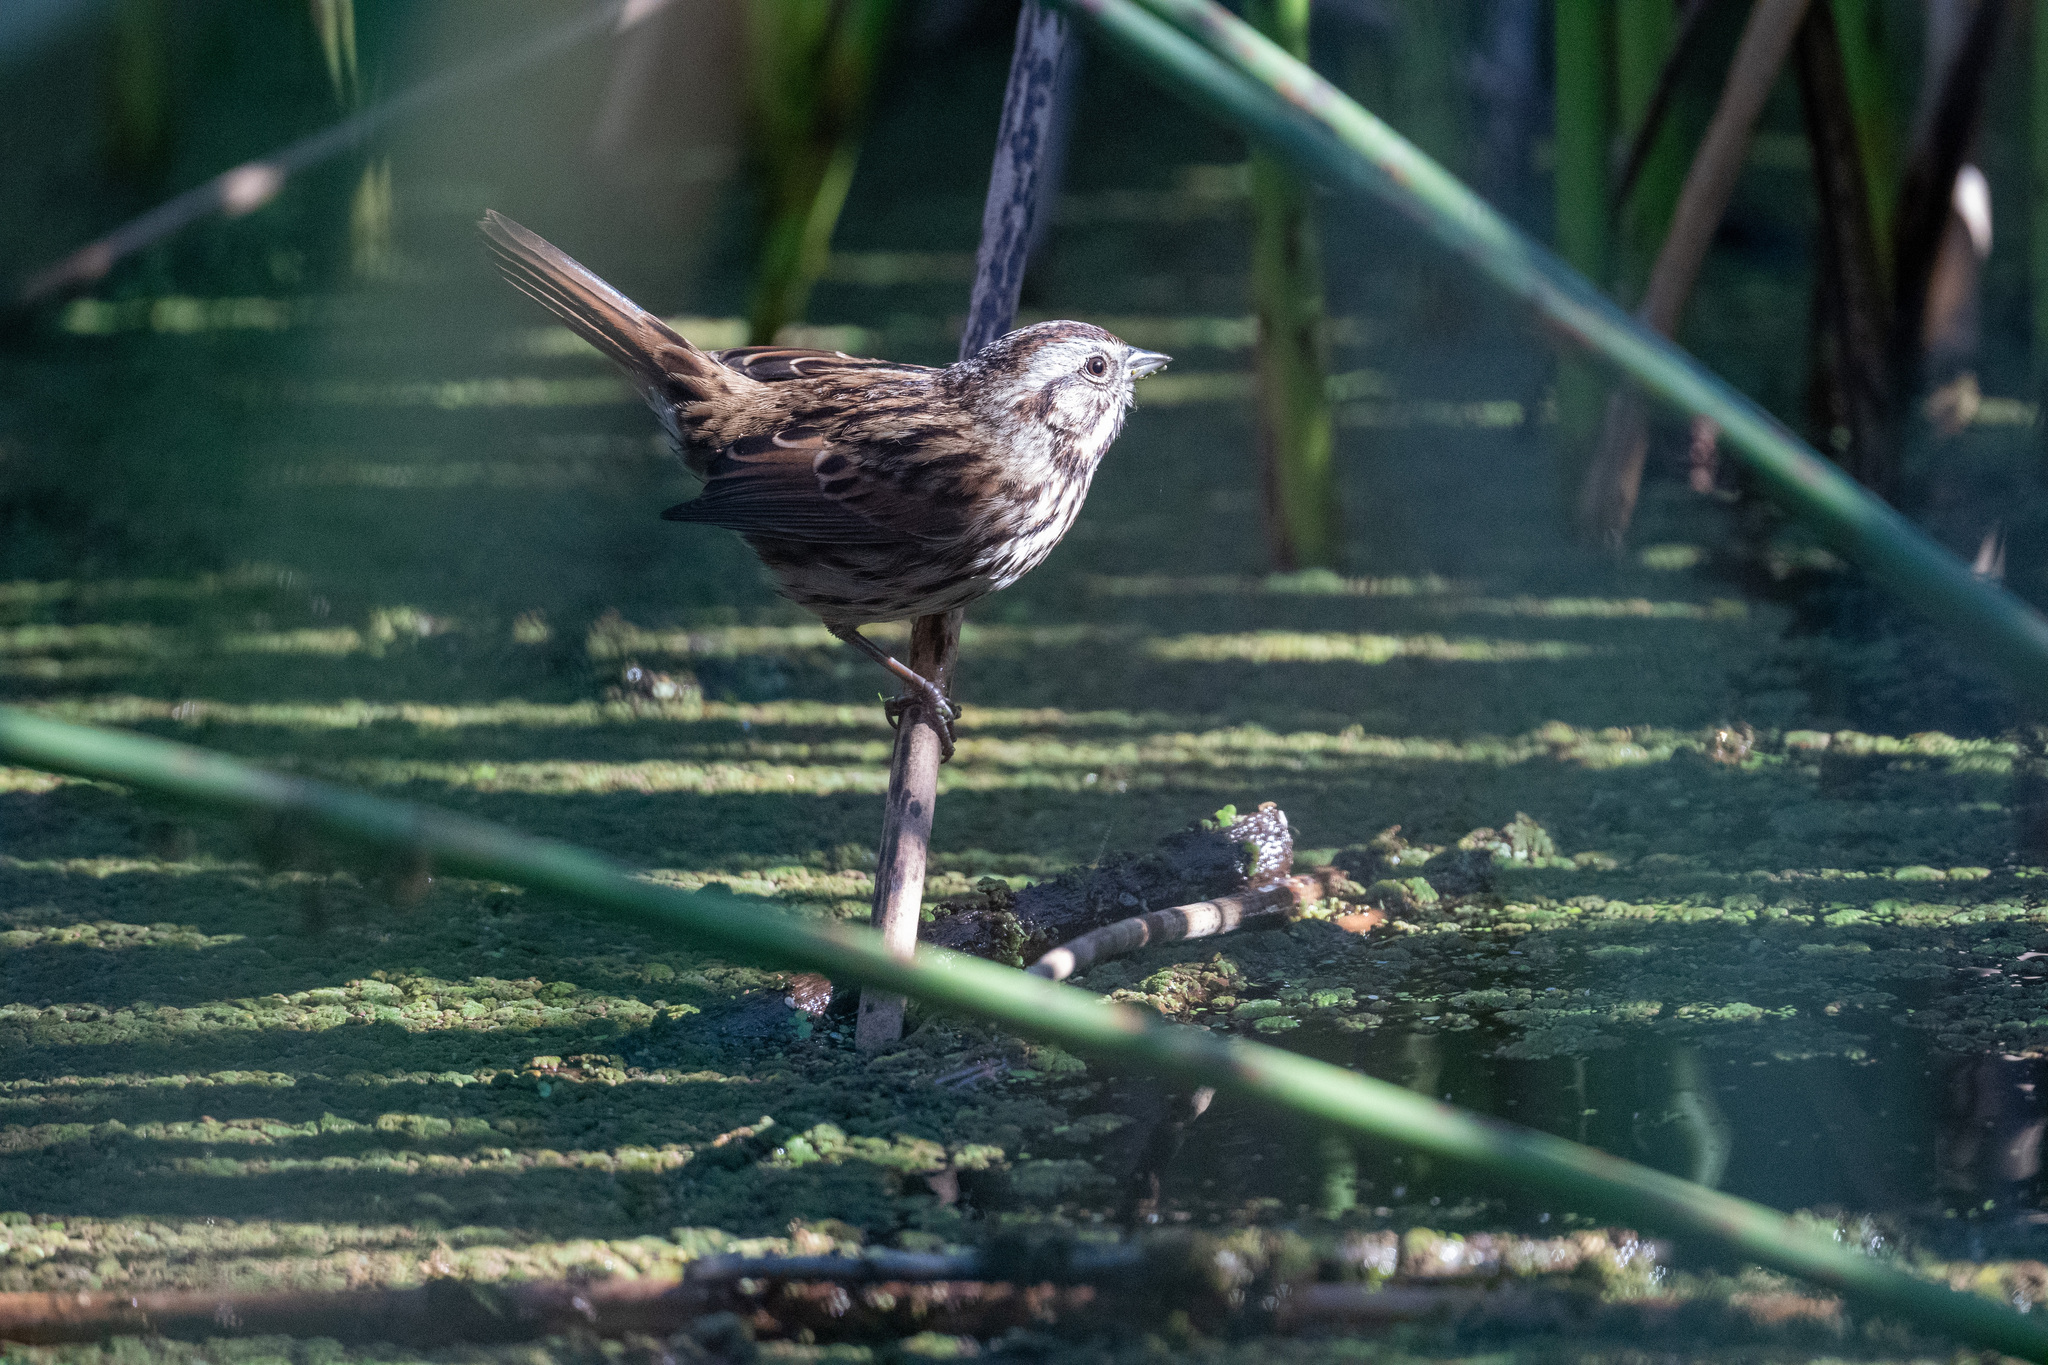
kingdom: Animalia
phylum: Chordata
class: Aves
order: Passeriformes
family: Passerellidae
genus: Melospiza
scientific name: Melospiza melodia
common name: Song sparrow
